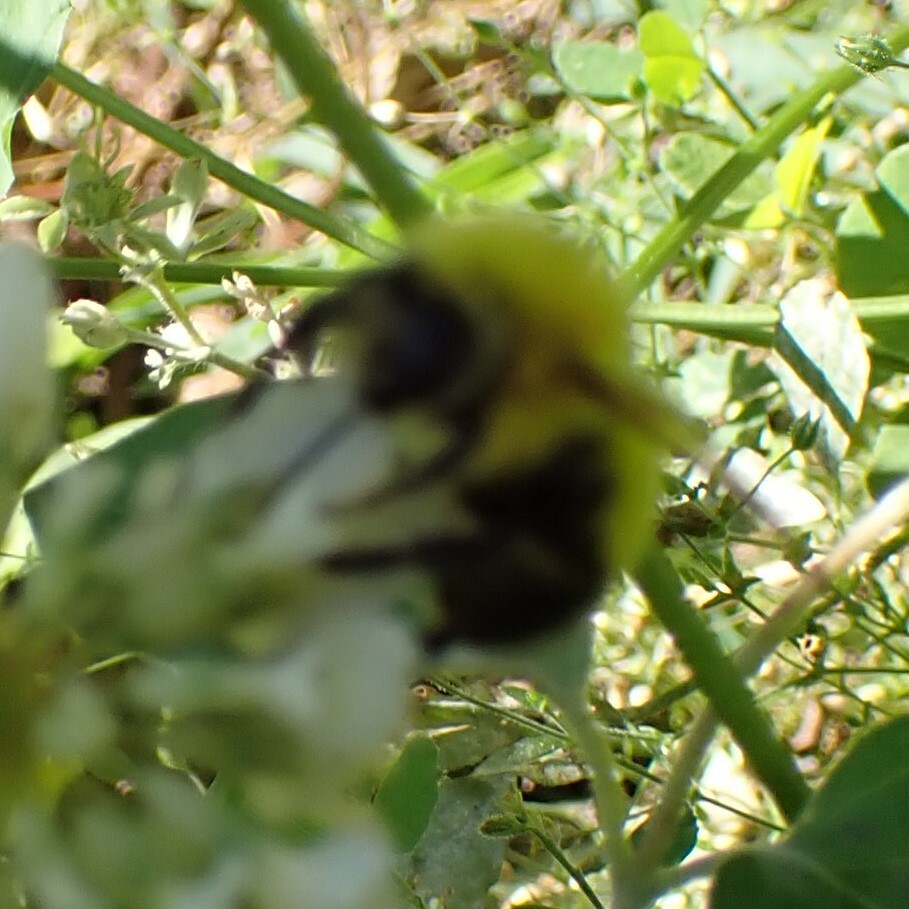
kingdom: Animalia
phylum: Arthropoda
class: Insecta
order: Hymenoptera
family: Apidae
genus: Bombus
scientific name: Bombus perplexus
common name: Confusing bumble bee
